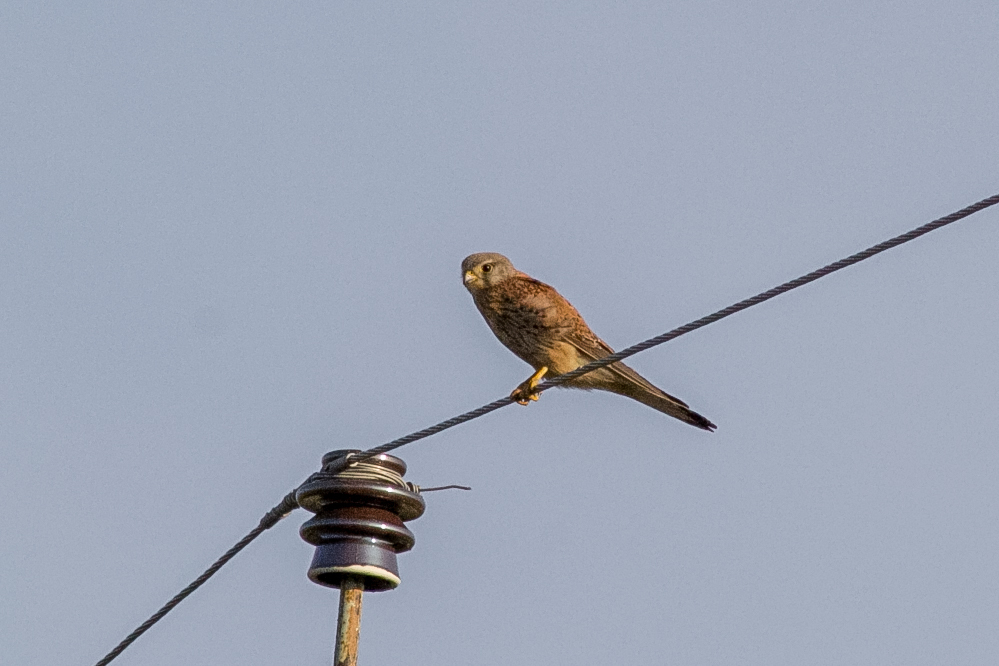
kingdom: Animalia
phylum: Chordata
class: Aves
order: Falconiformes
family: Falconidae
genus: Falco
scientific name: Falco tinnunculus
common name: Common kestrel
